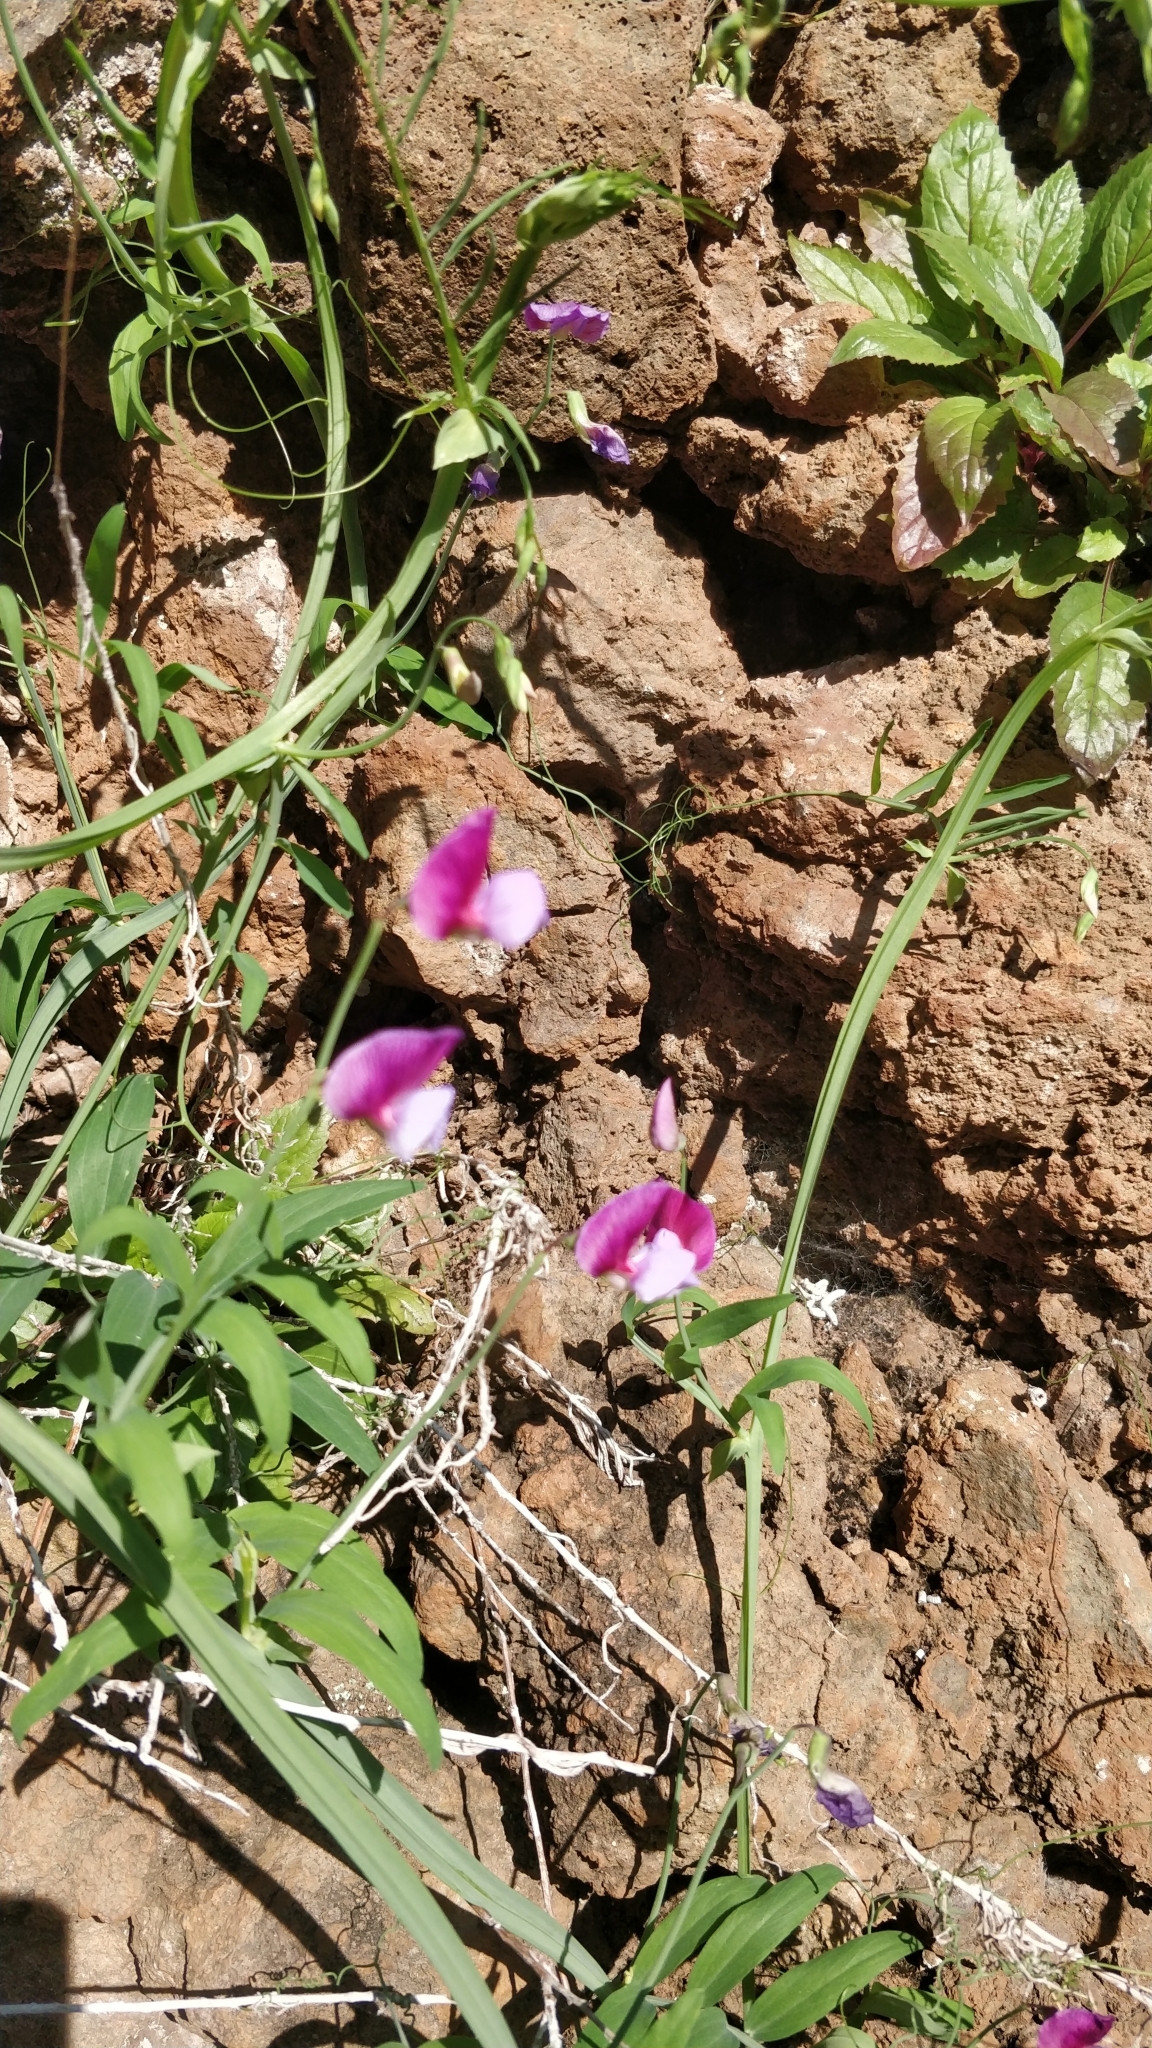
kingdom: Plantae
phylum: Tracheophyta
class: Magnoliopsida
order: Fabales
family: Fabaceae
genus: Lathyrus
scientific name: Lathyrus clymenum
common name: Spanish vetchling
